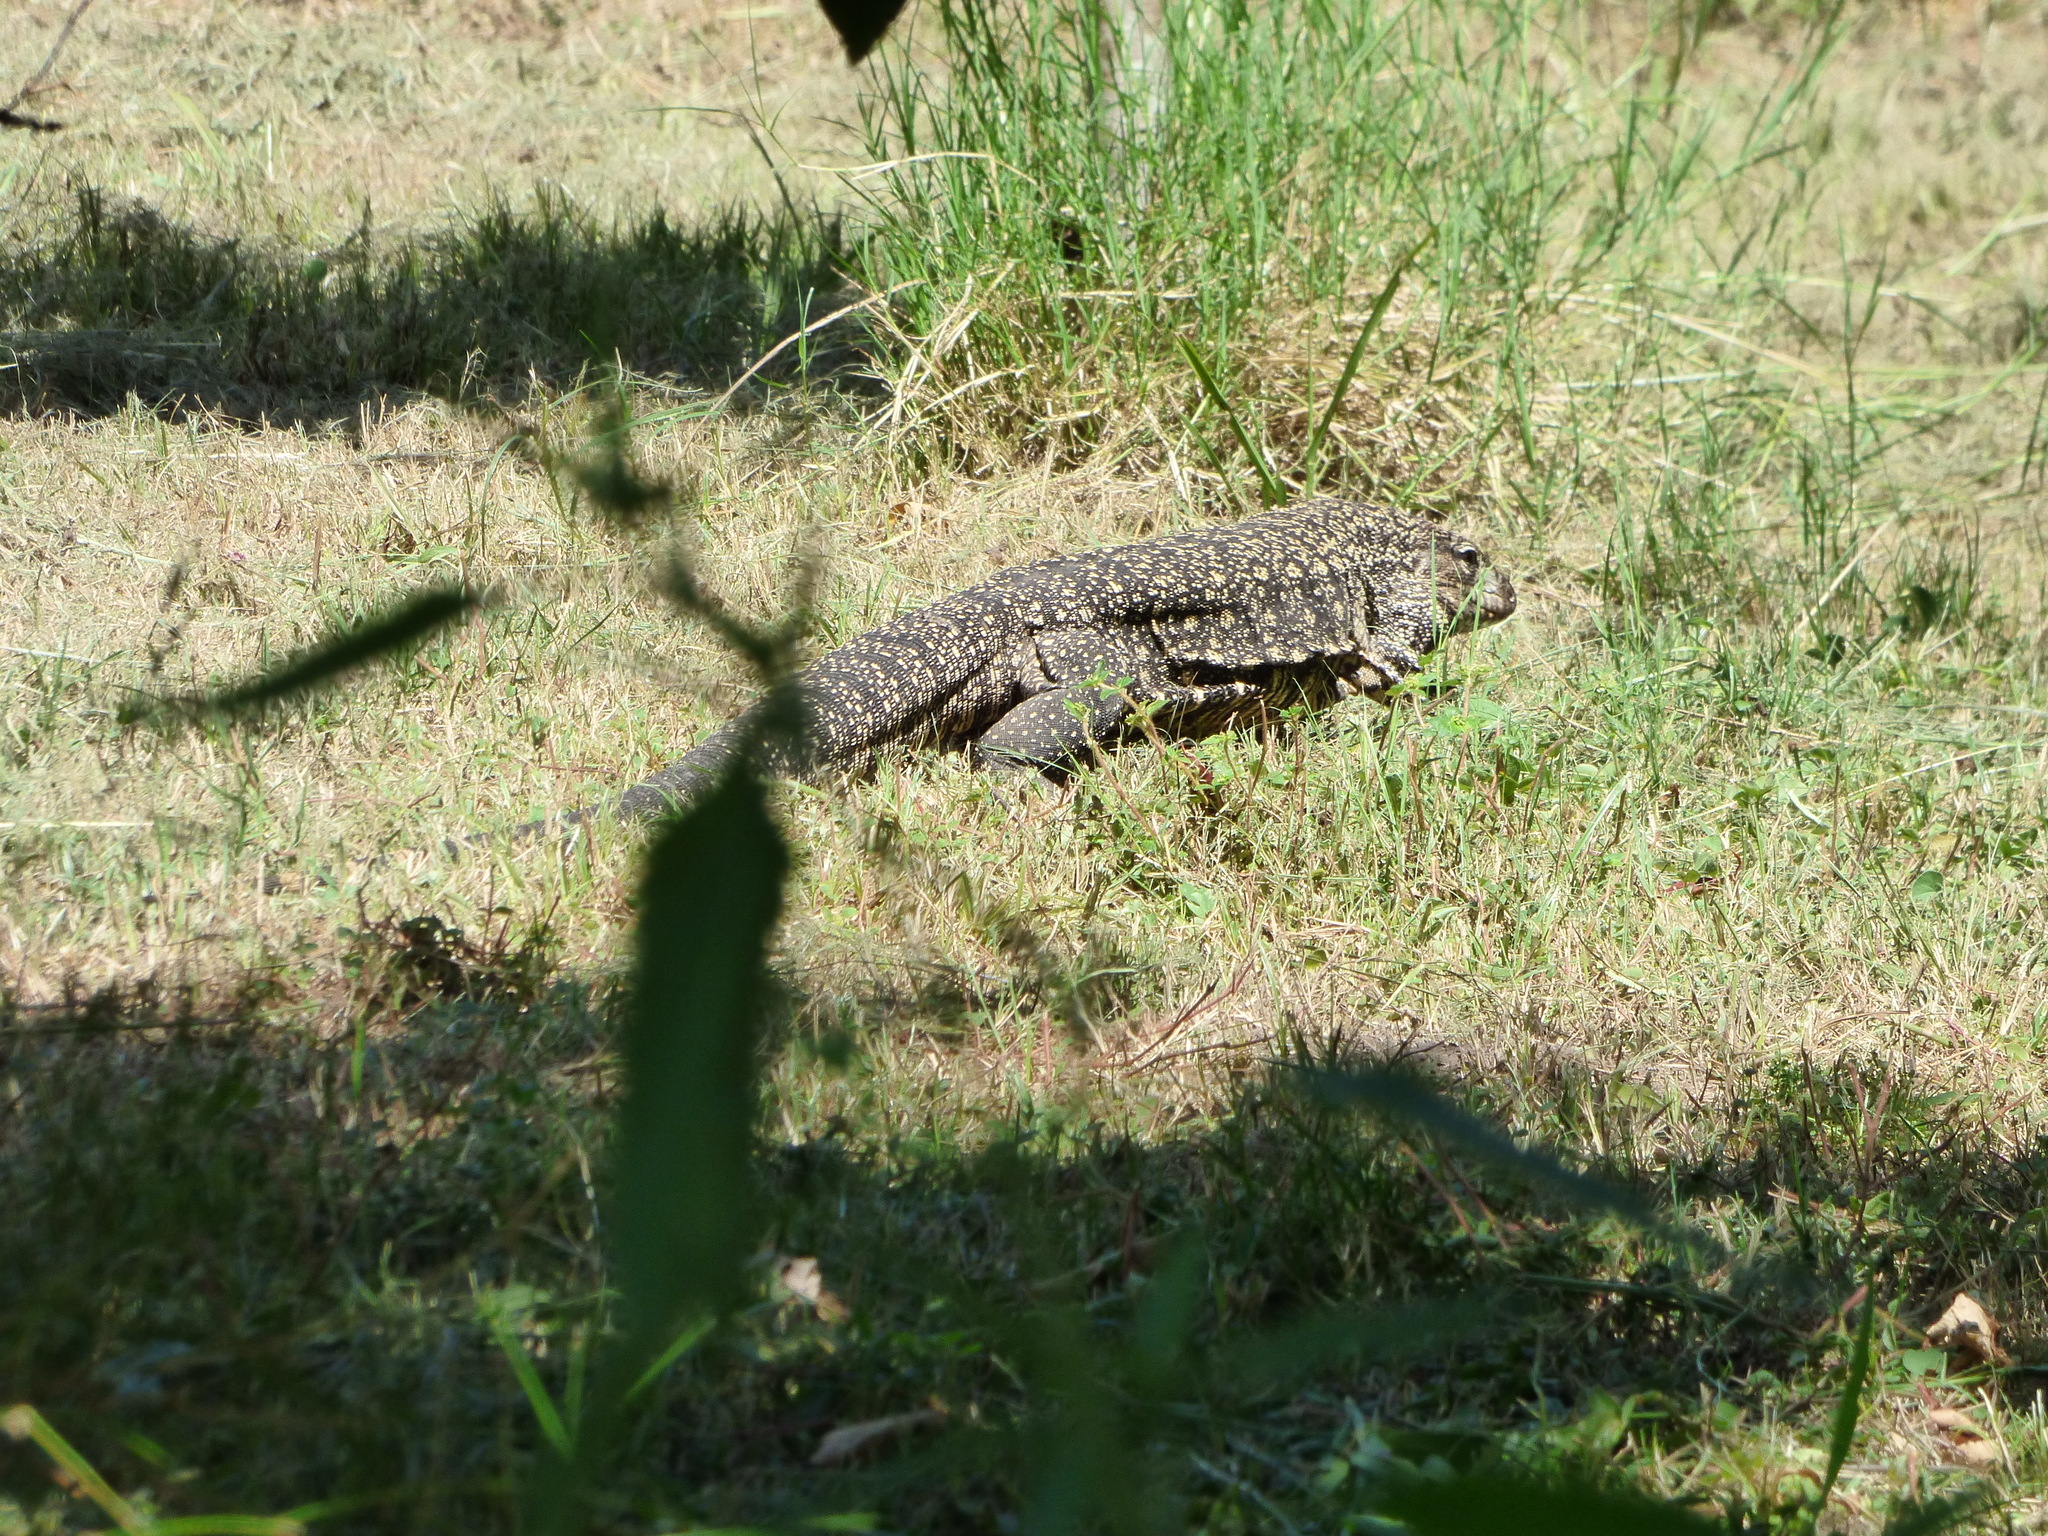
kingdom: Animalia
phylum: Chordata
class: Squamata
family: Teiidae
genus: Salvator
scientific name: Salvator merianae
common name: Argentine black and white tegu
